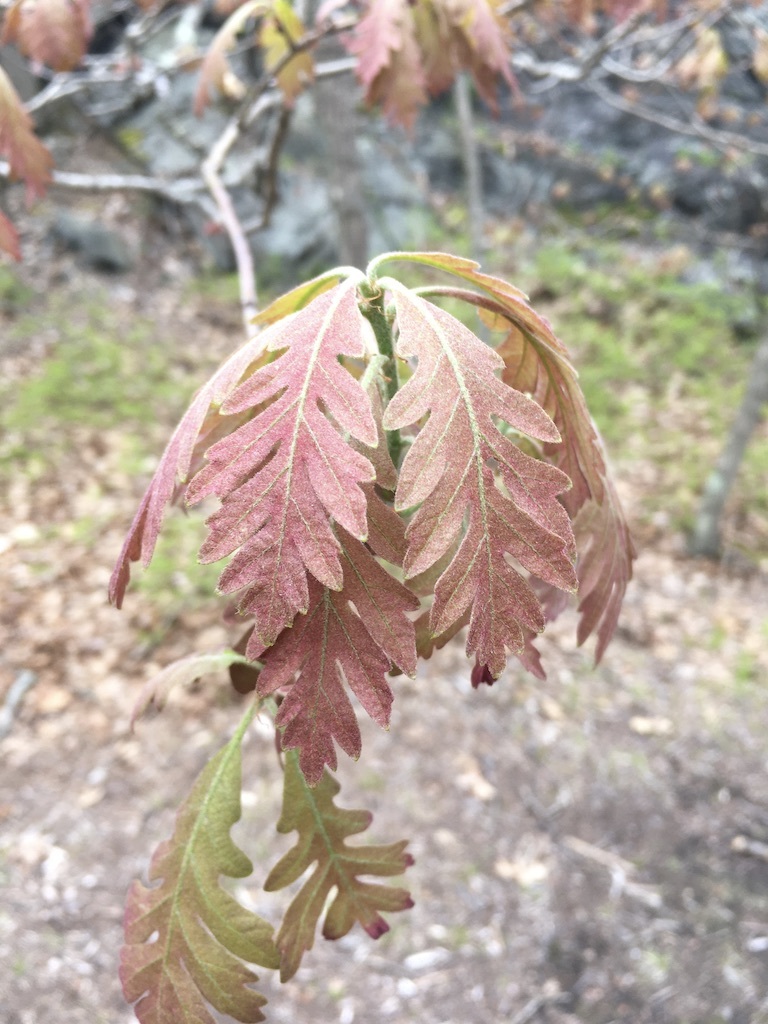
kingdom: Plantae
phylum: Tracheophyta
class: Magnoliopsida
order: Fagales
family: Fagaceae
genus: Quercus
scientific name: Quercus alba
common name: White oak
